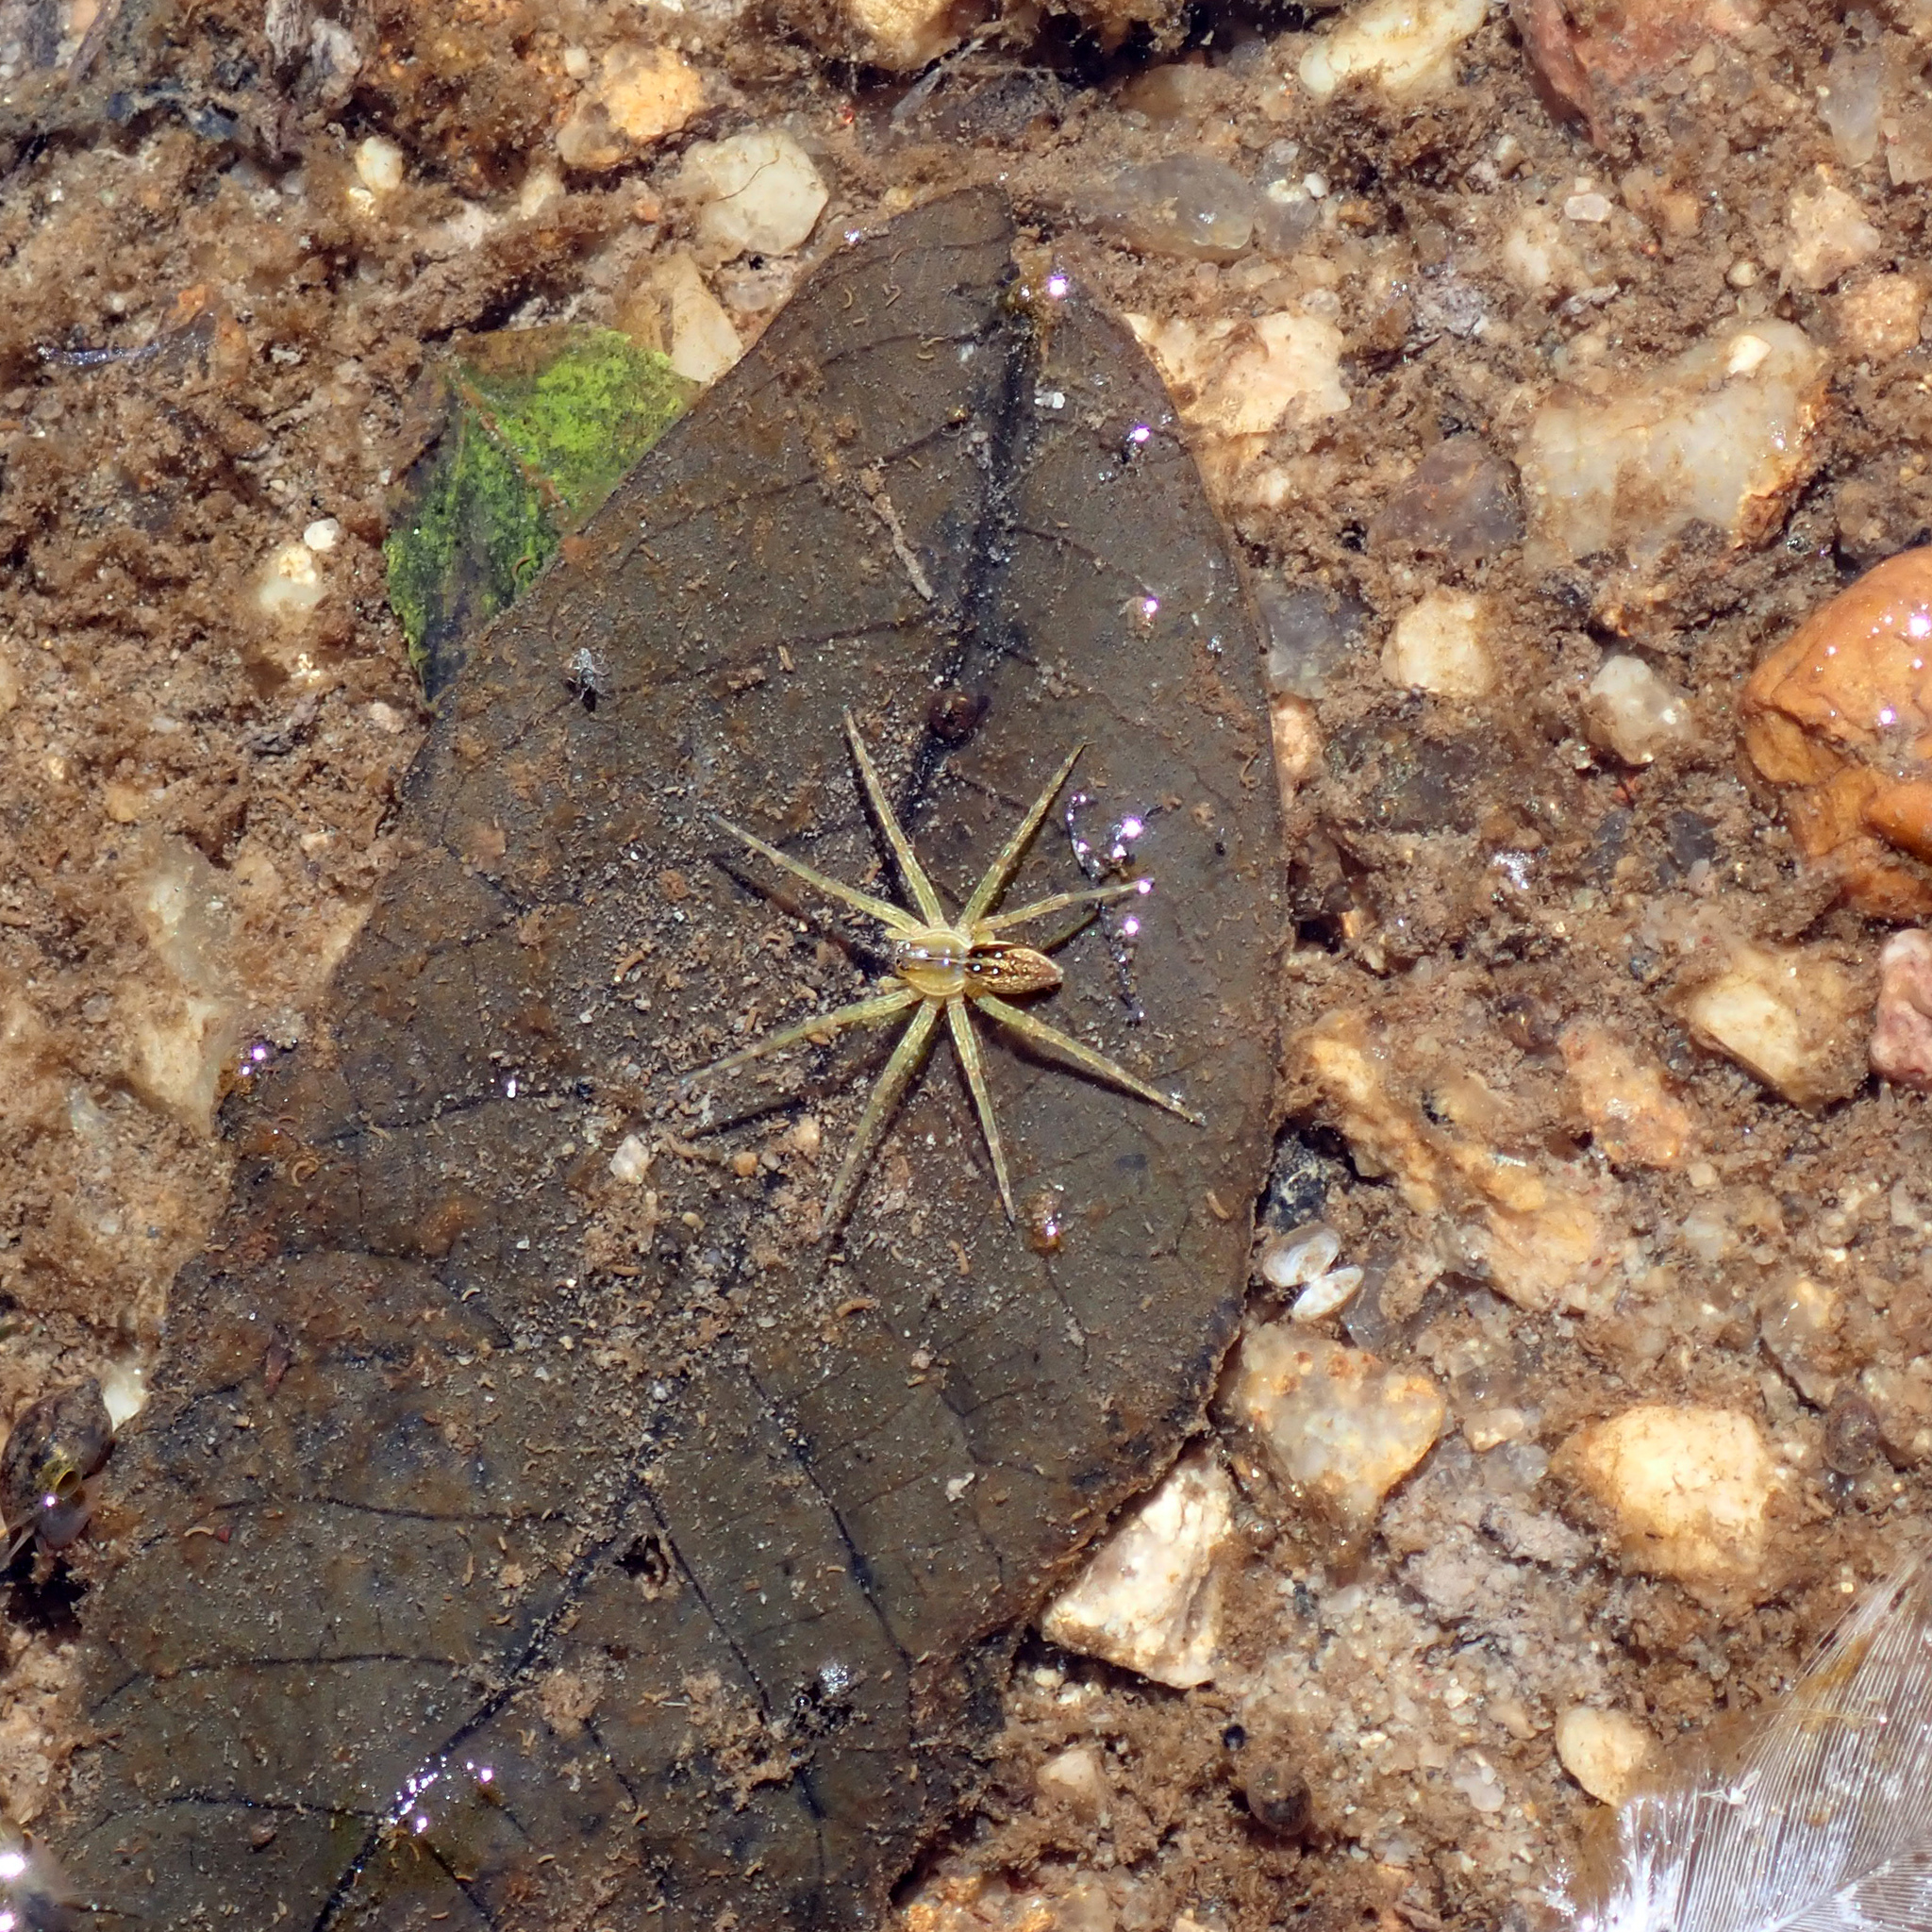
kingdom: Animalia
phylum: Arthropoda
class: Arachnida
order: Araneae
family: Pisauridae
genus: Dolomedes
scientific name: Dolomedes triton
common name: Six-spotted fishing spider
